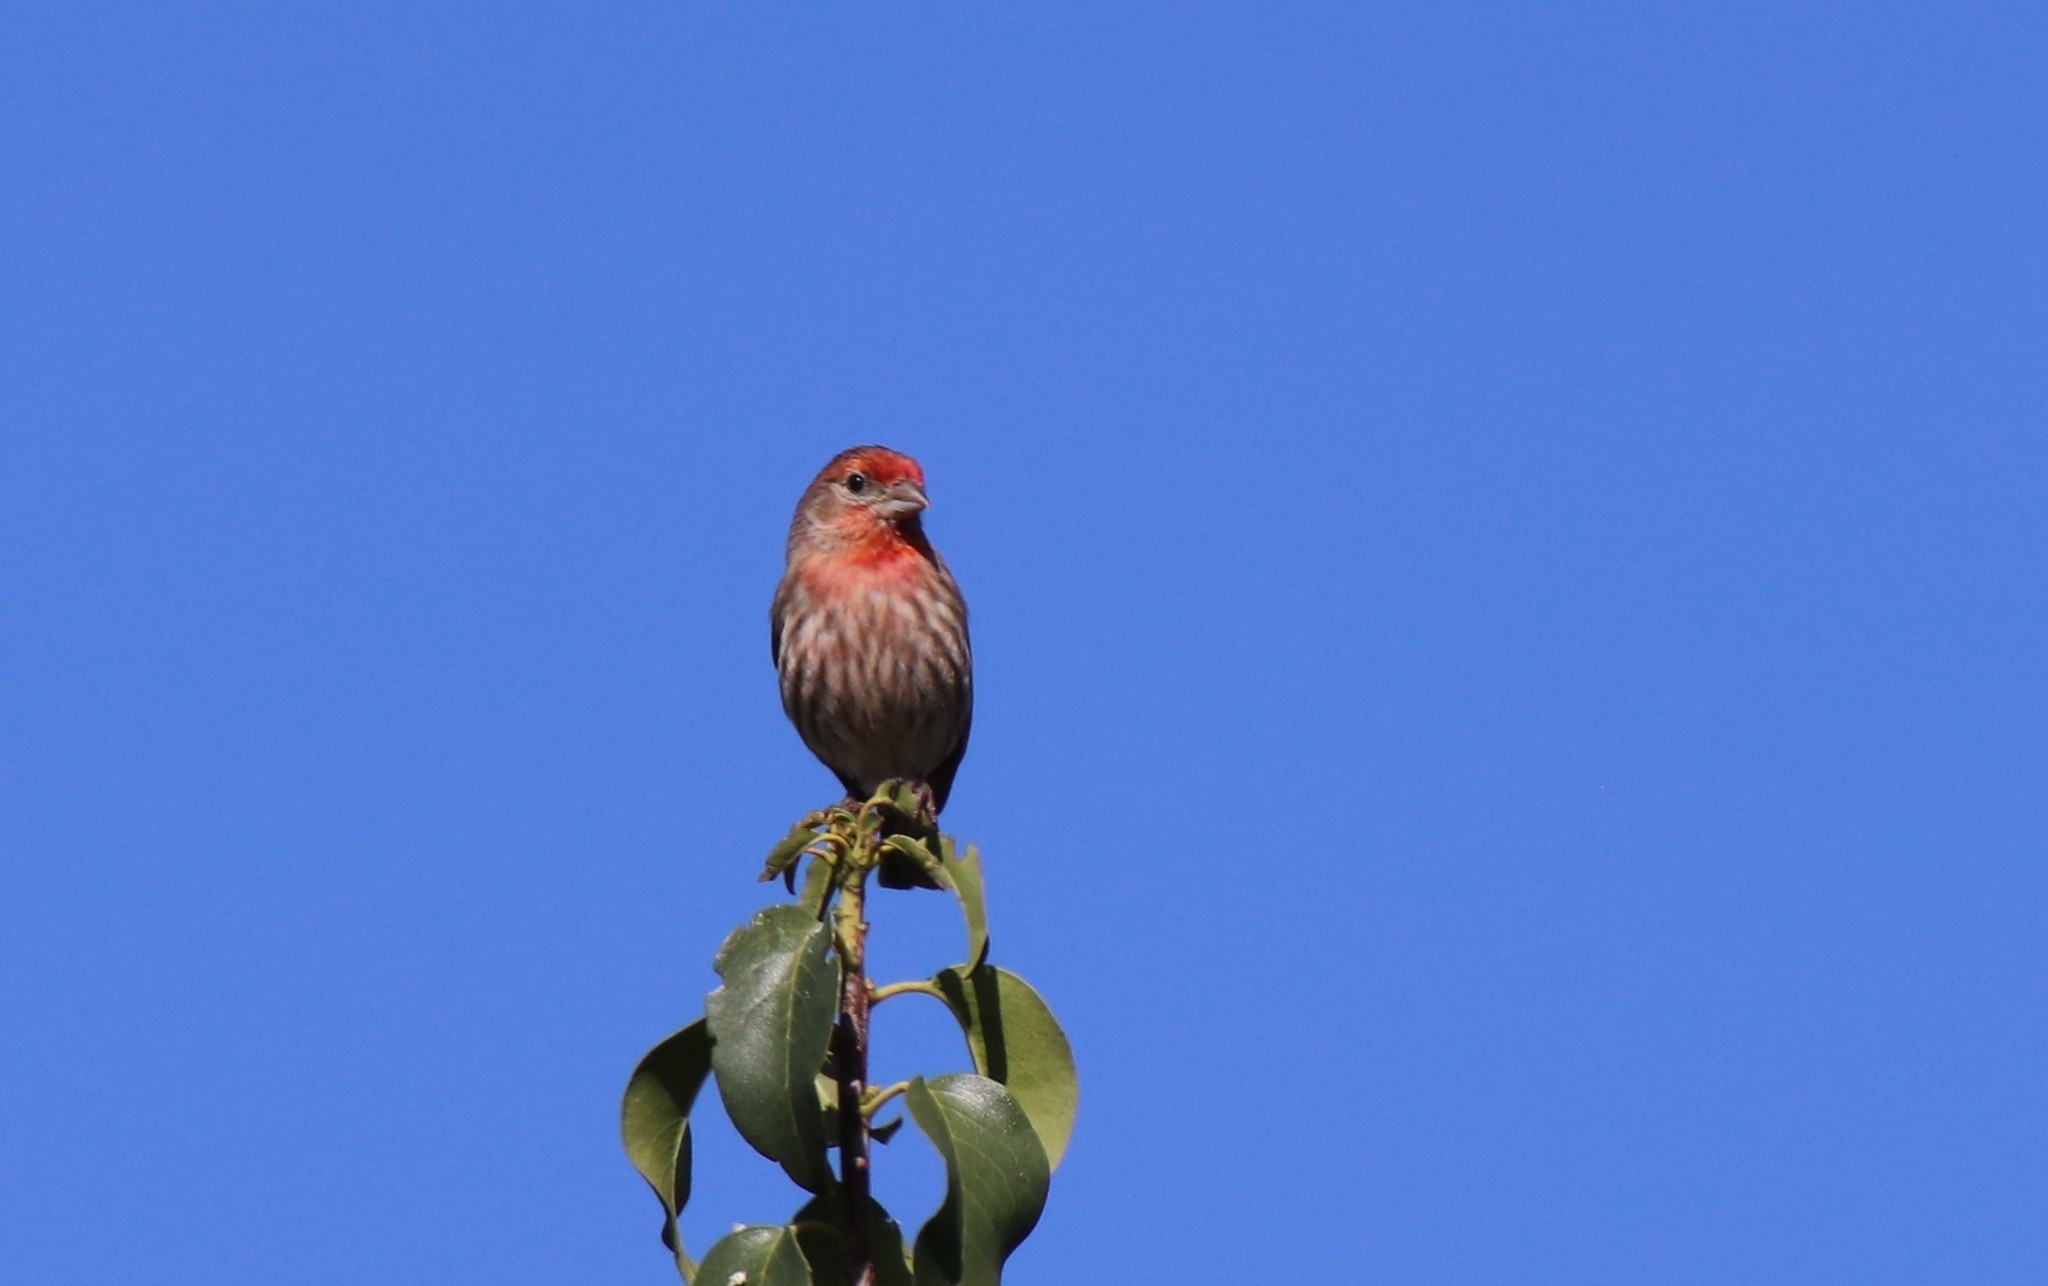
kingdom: Animalia
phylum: Chordata
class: Aves
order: Passeriformes
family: Fringillidae
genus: Haemorhous
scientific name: Haemorhous mexicanus
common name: House finch
